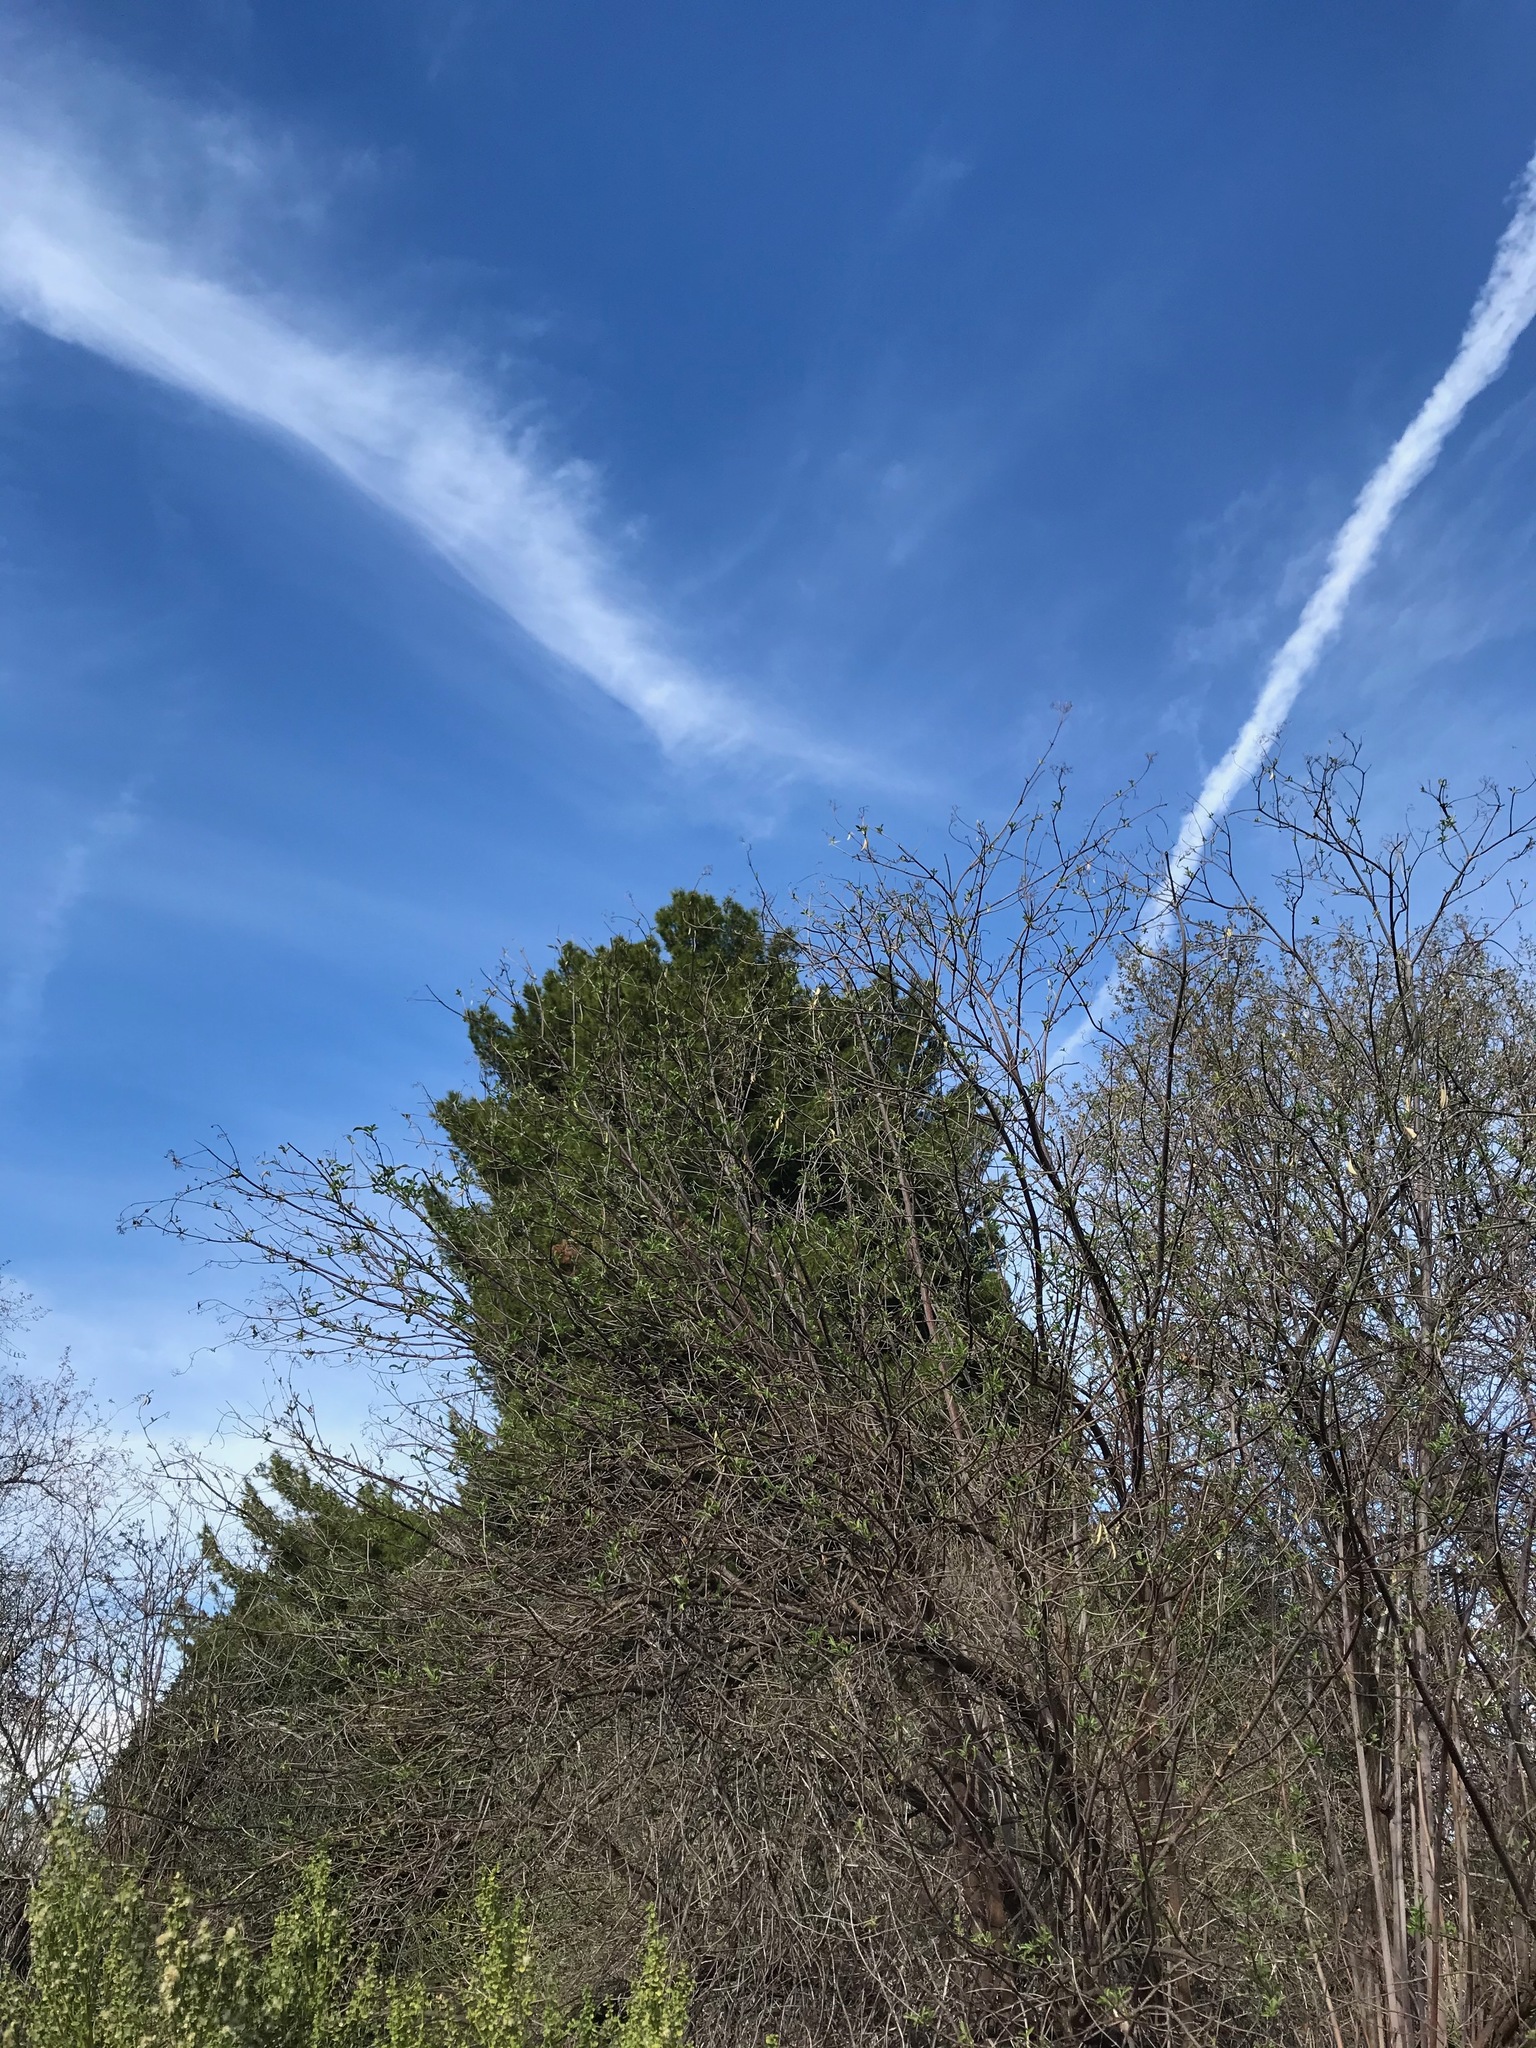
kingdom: Animalia
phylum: Chordata
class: Aves
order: Apodiformes
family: Trochilidae
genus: Calypte
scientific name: Calypte anna
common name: Anna's hummingbird
